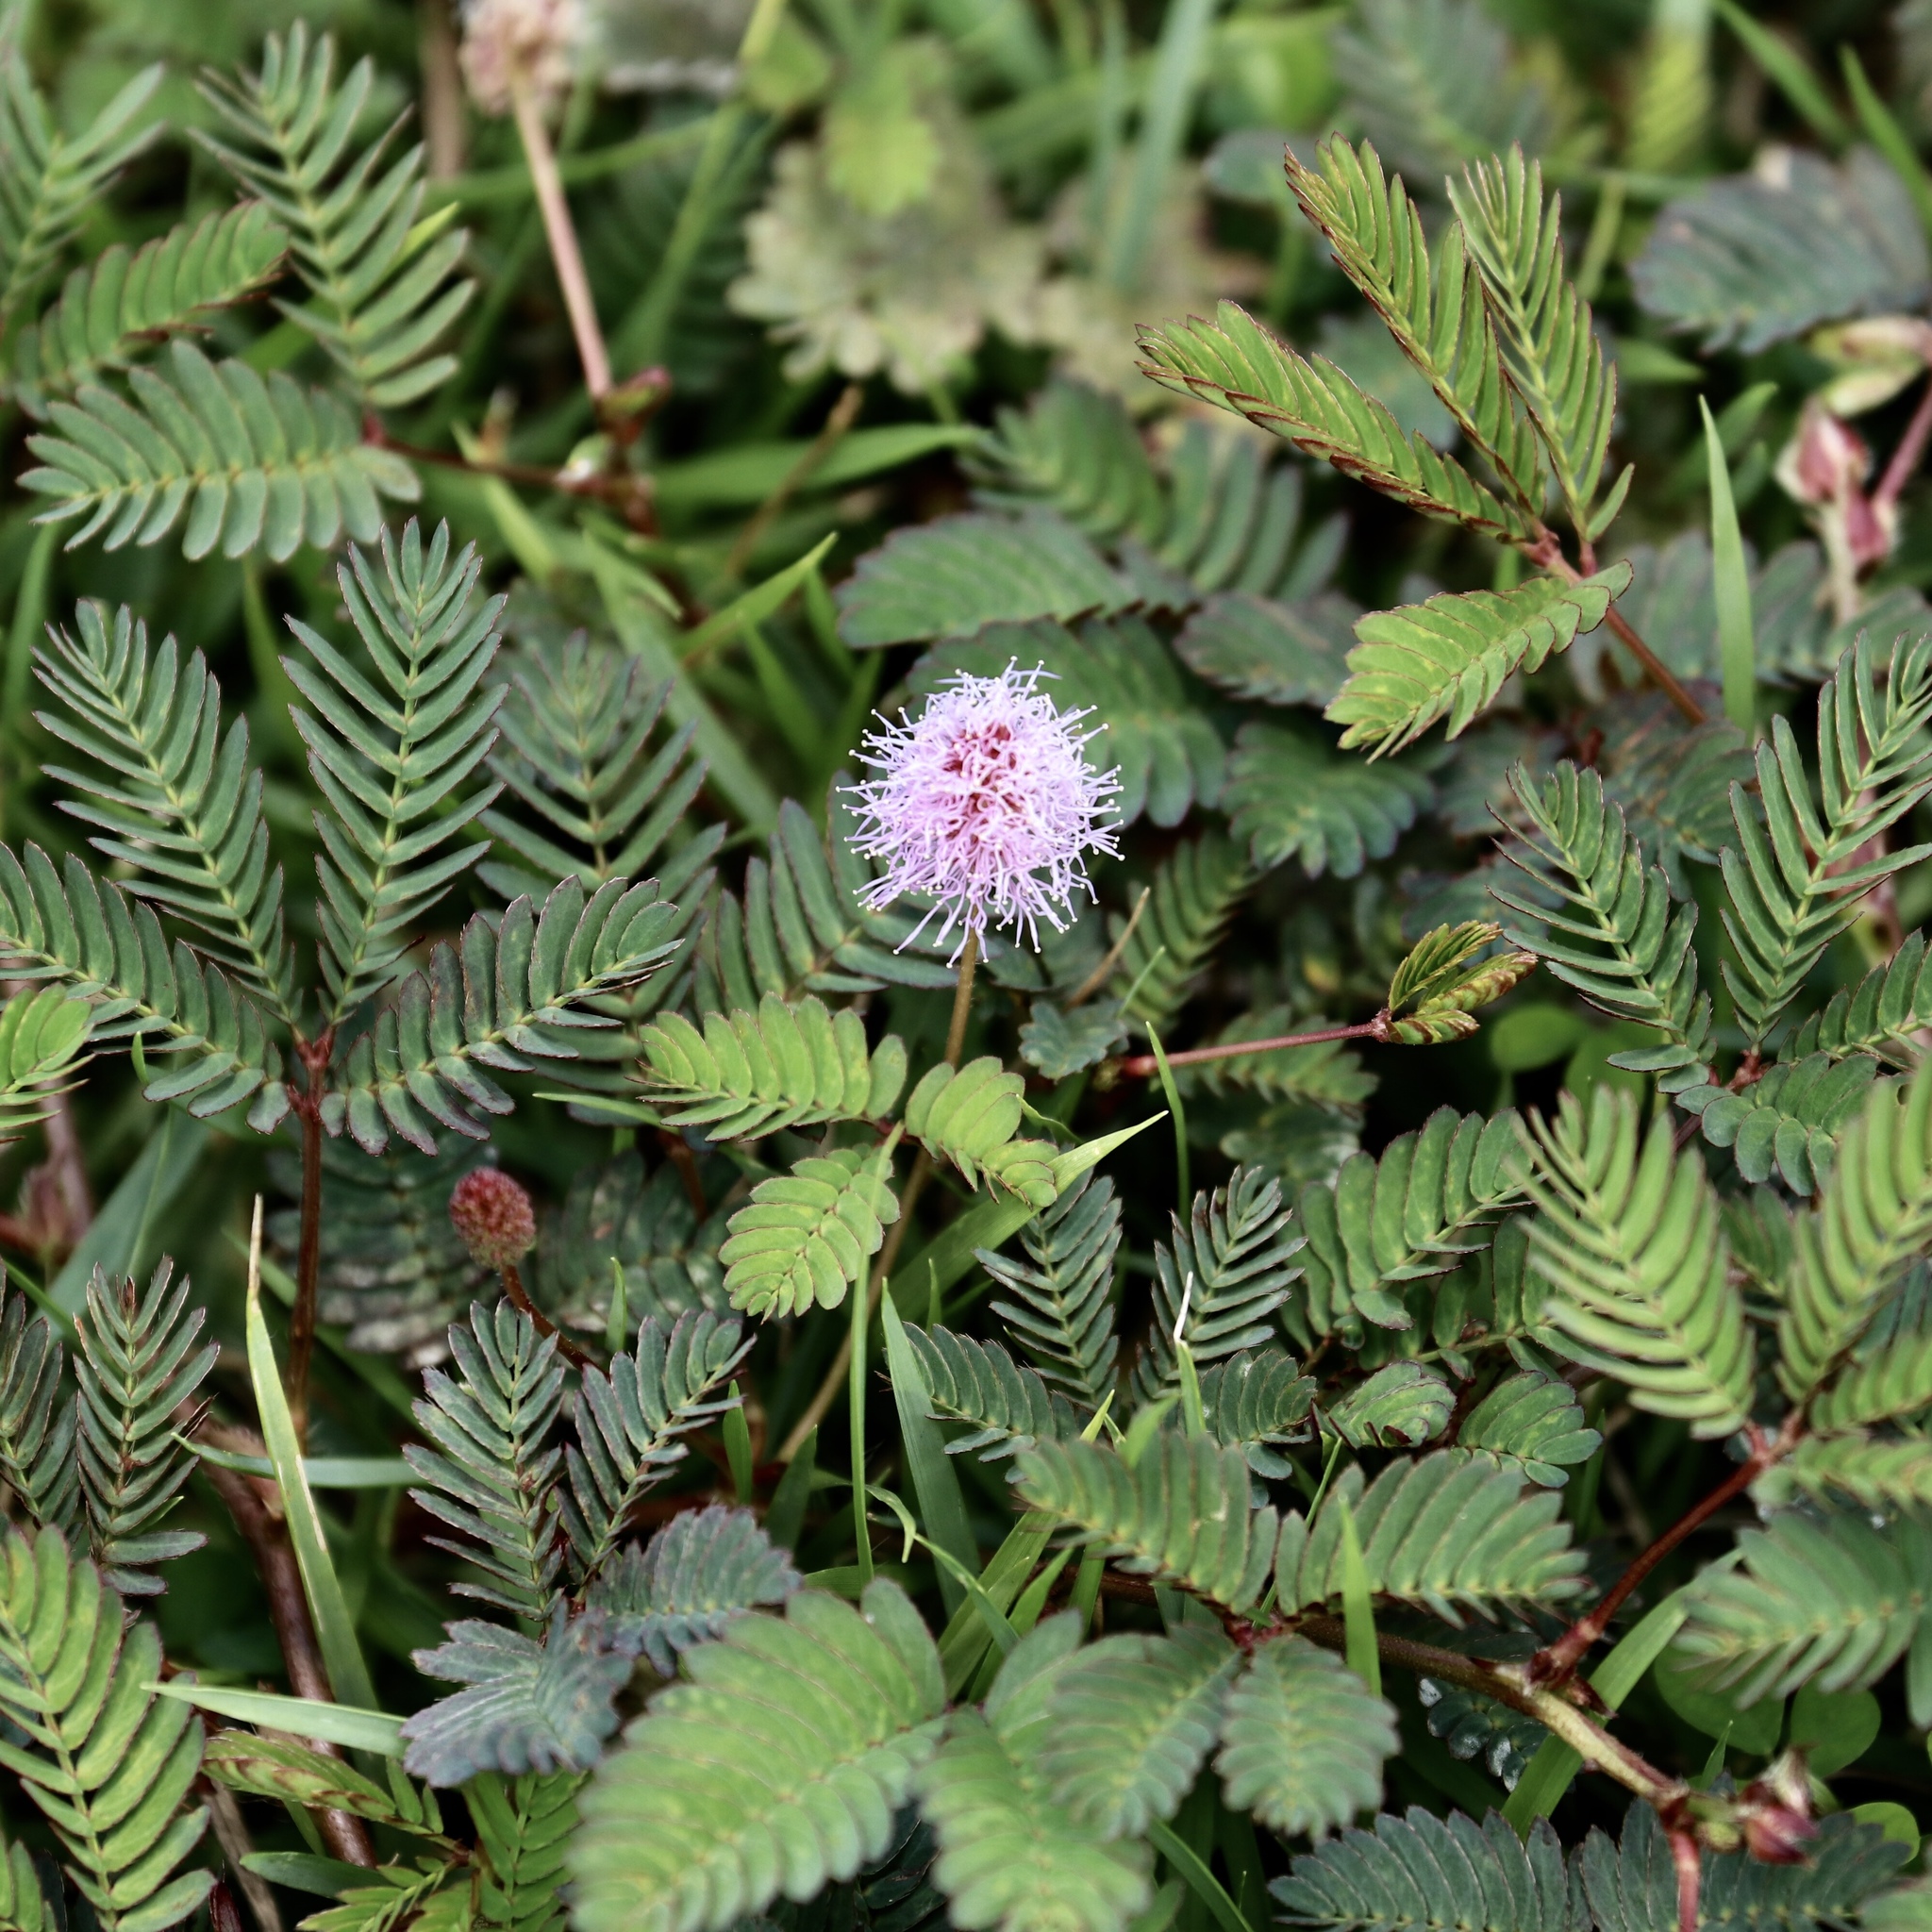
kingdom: Plantae
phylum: Tracheophyta
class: Magnoliopsida
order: Fabales
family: Fabaceae
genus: Mimosa
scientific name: Mimosa pudica
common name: Sensitive plant
